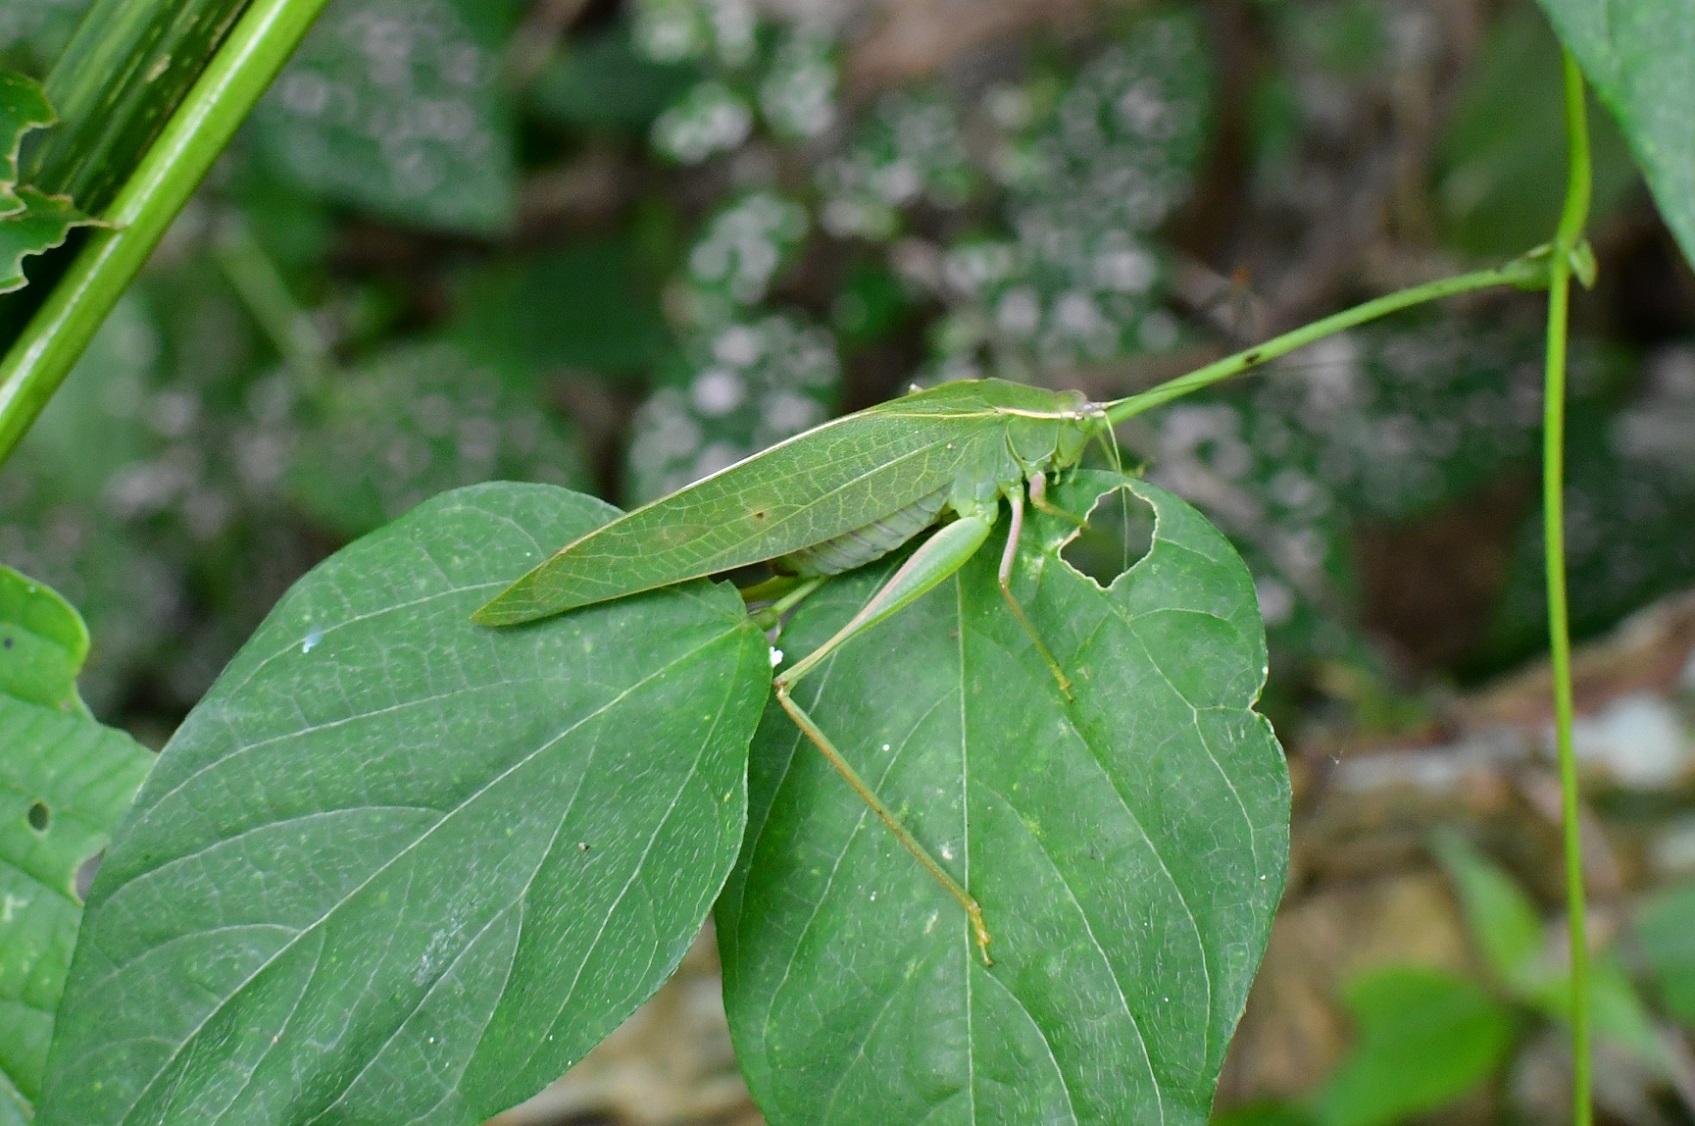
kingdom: Animalia
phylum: Arthropoda
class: Insecta
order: Orthoptera
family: Tettigoniidae
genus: Turpiliodes
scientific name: Turpiliodes mexicanum
